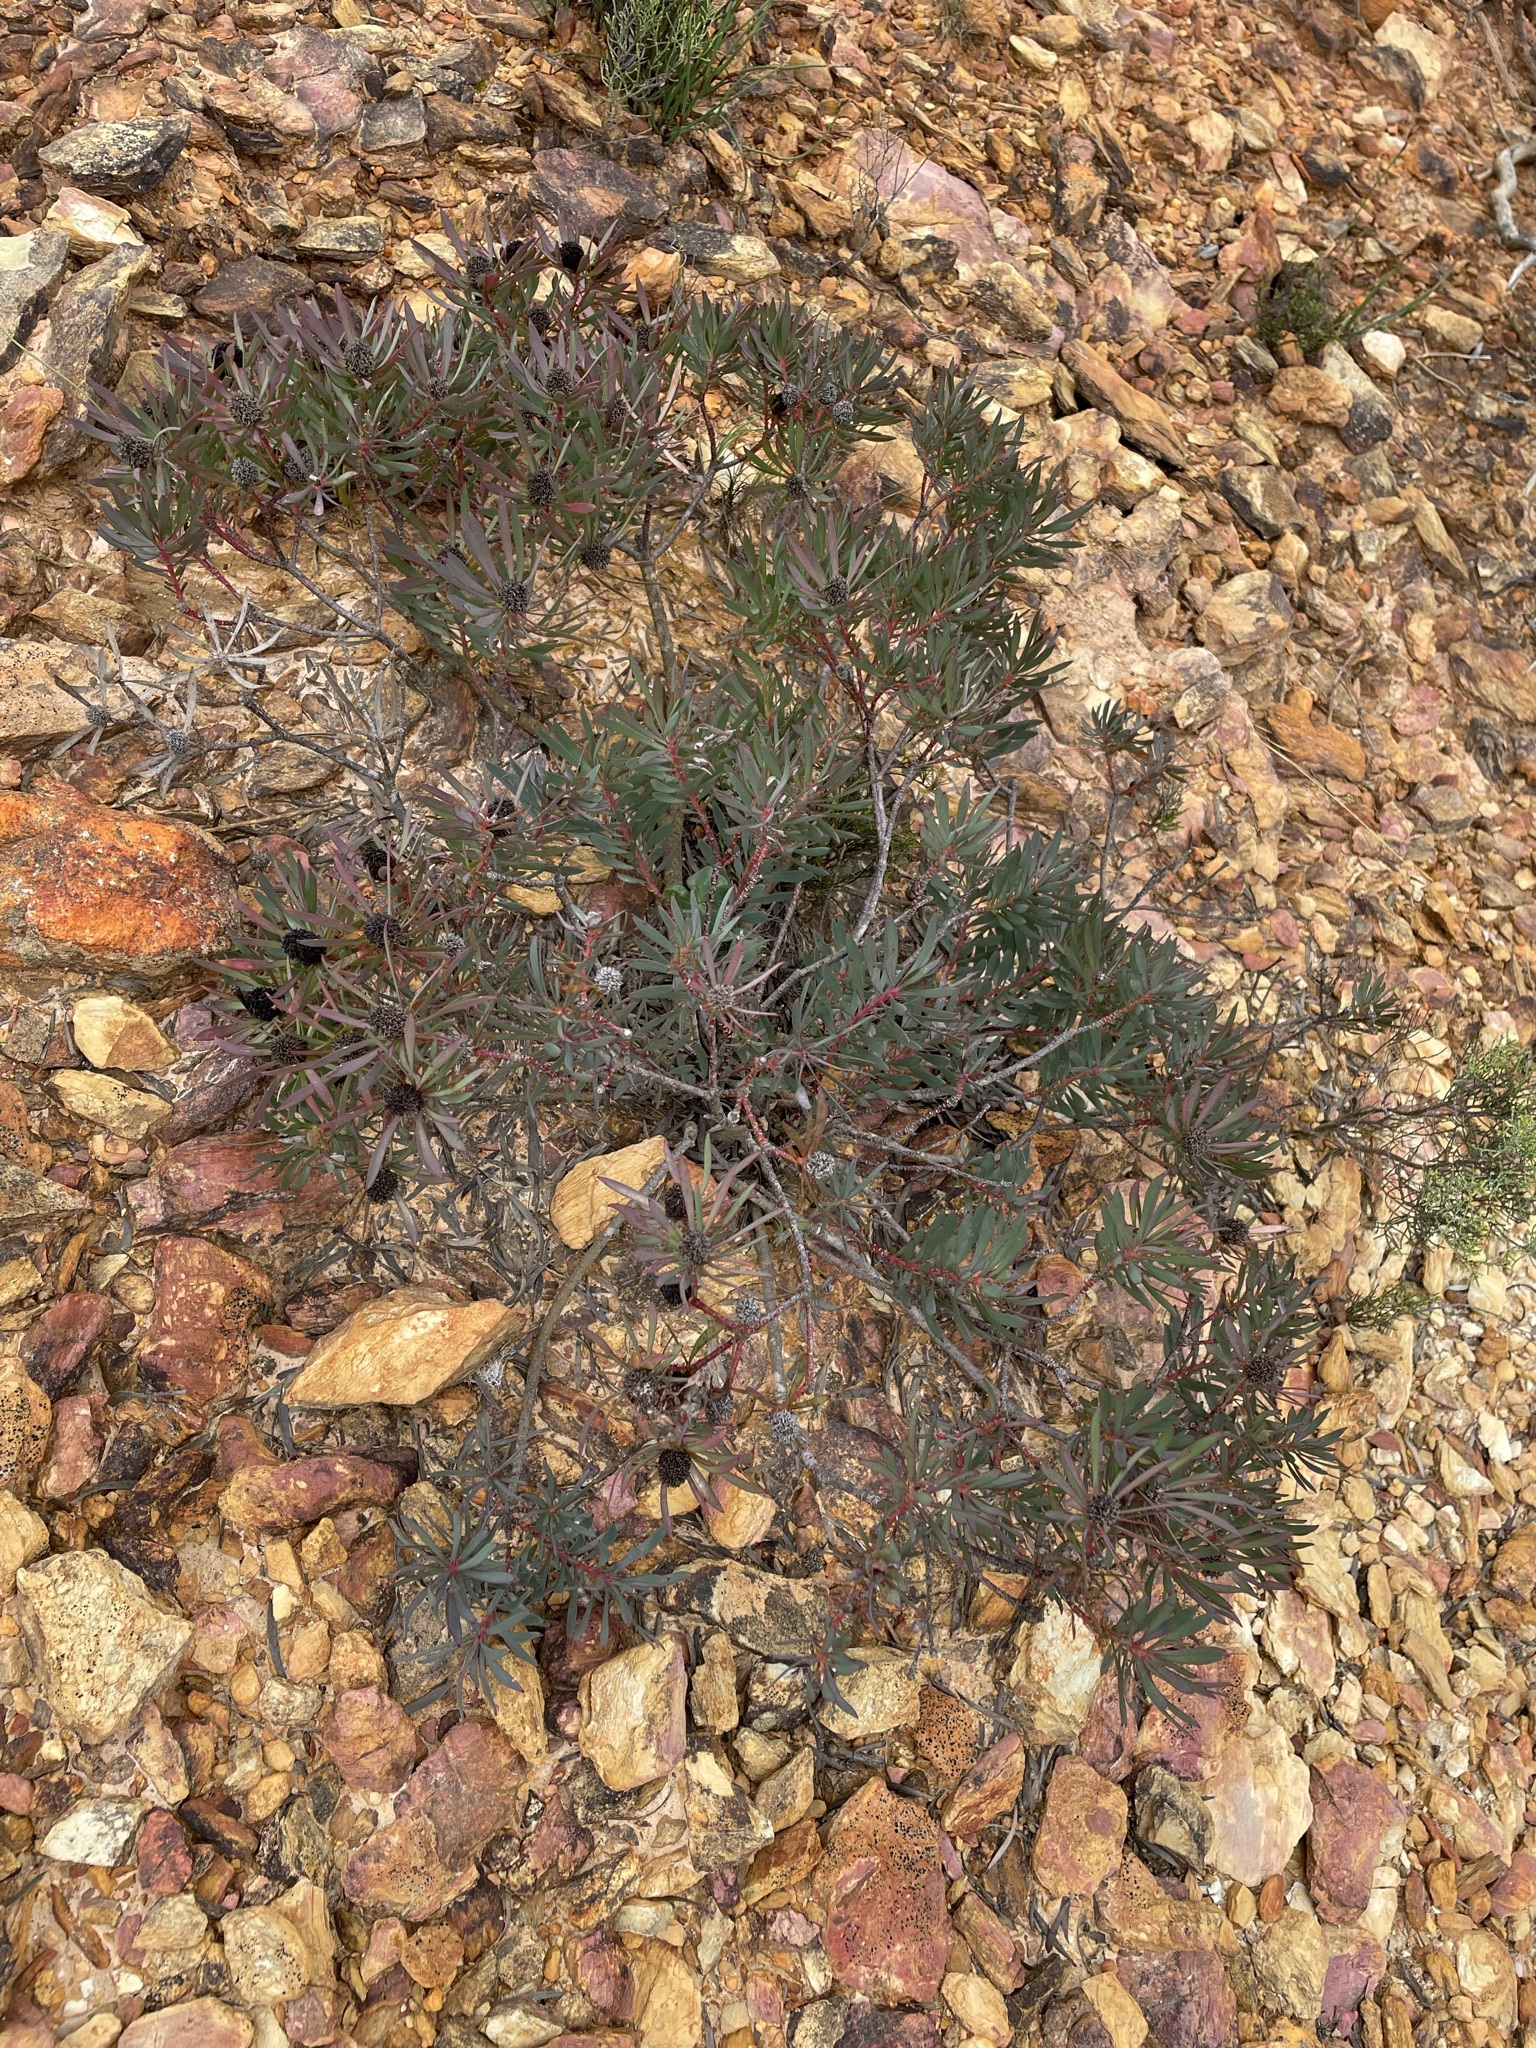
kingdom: Plantae
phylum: Tracheophyta
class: Magnoliopsida
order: Proteales
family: Proteaceae
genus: Leucadendron
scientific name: Leucadendron salignum
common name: Common sunshine conebush
